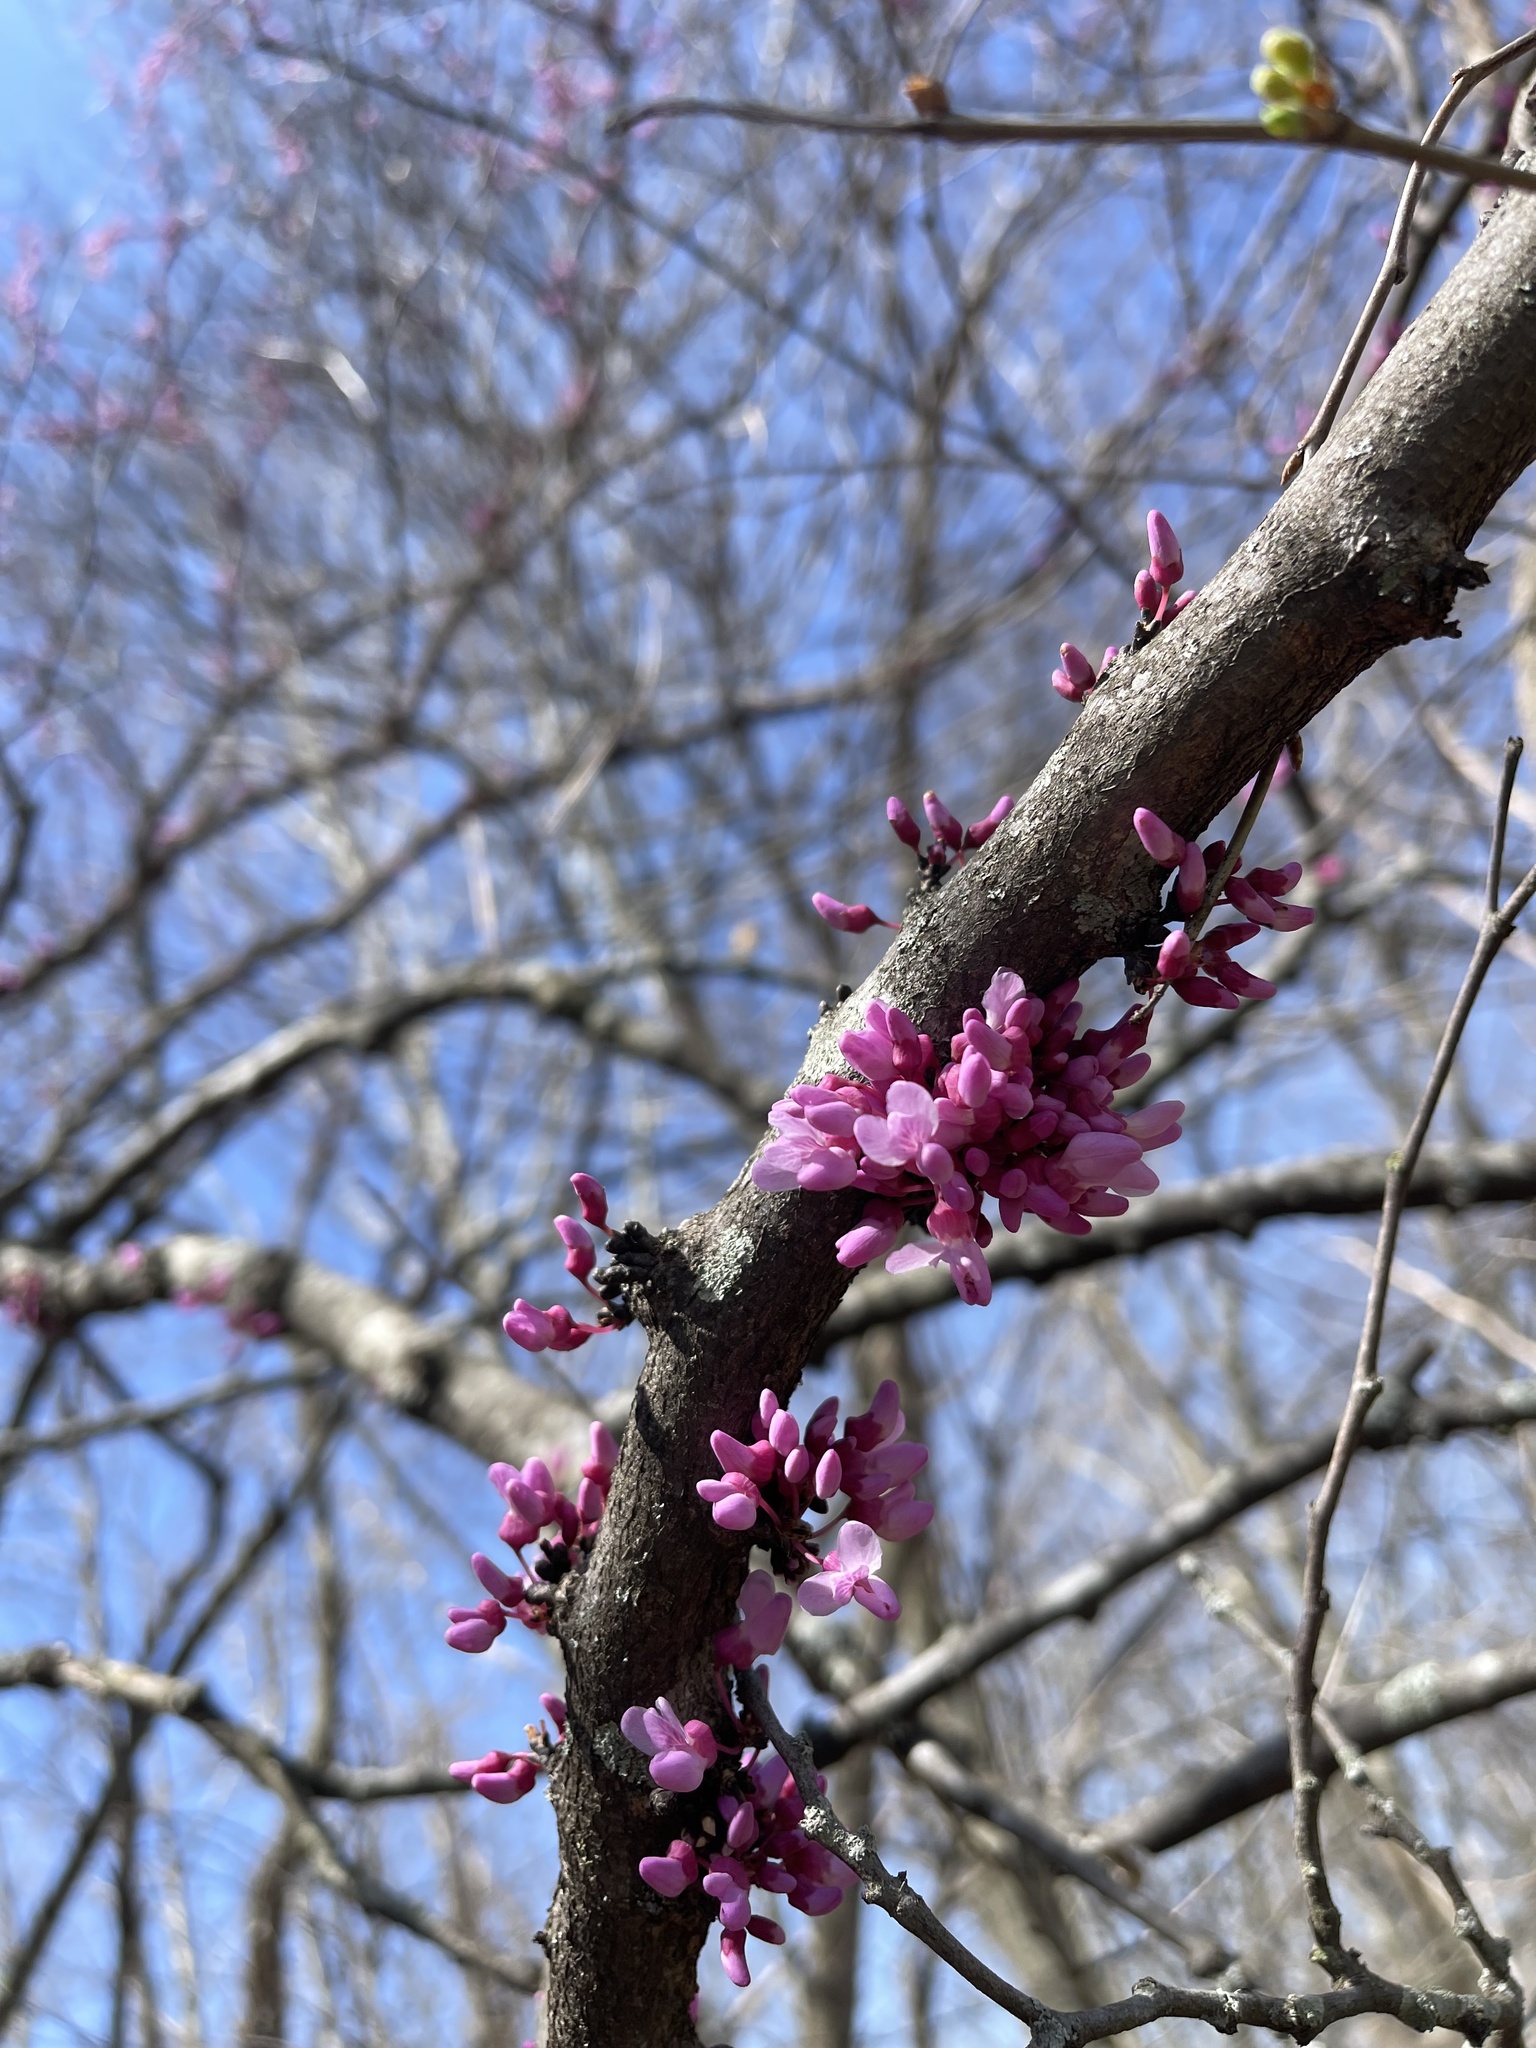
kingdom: Plantae
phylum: Tracheophyta
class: Magnoliopsida
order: Fabales
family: Fabaceae
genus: Cercis
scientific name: Cercis canadensis
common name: Eastern redbud
